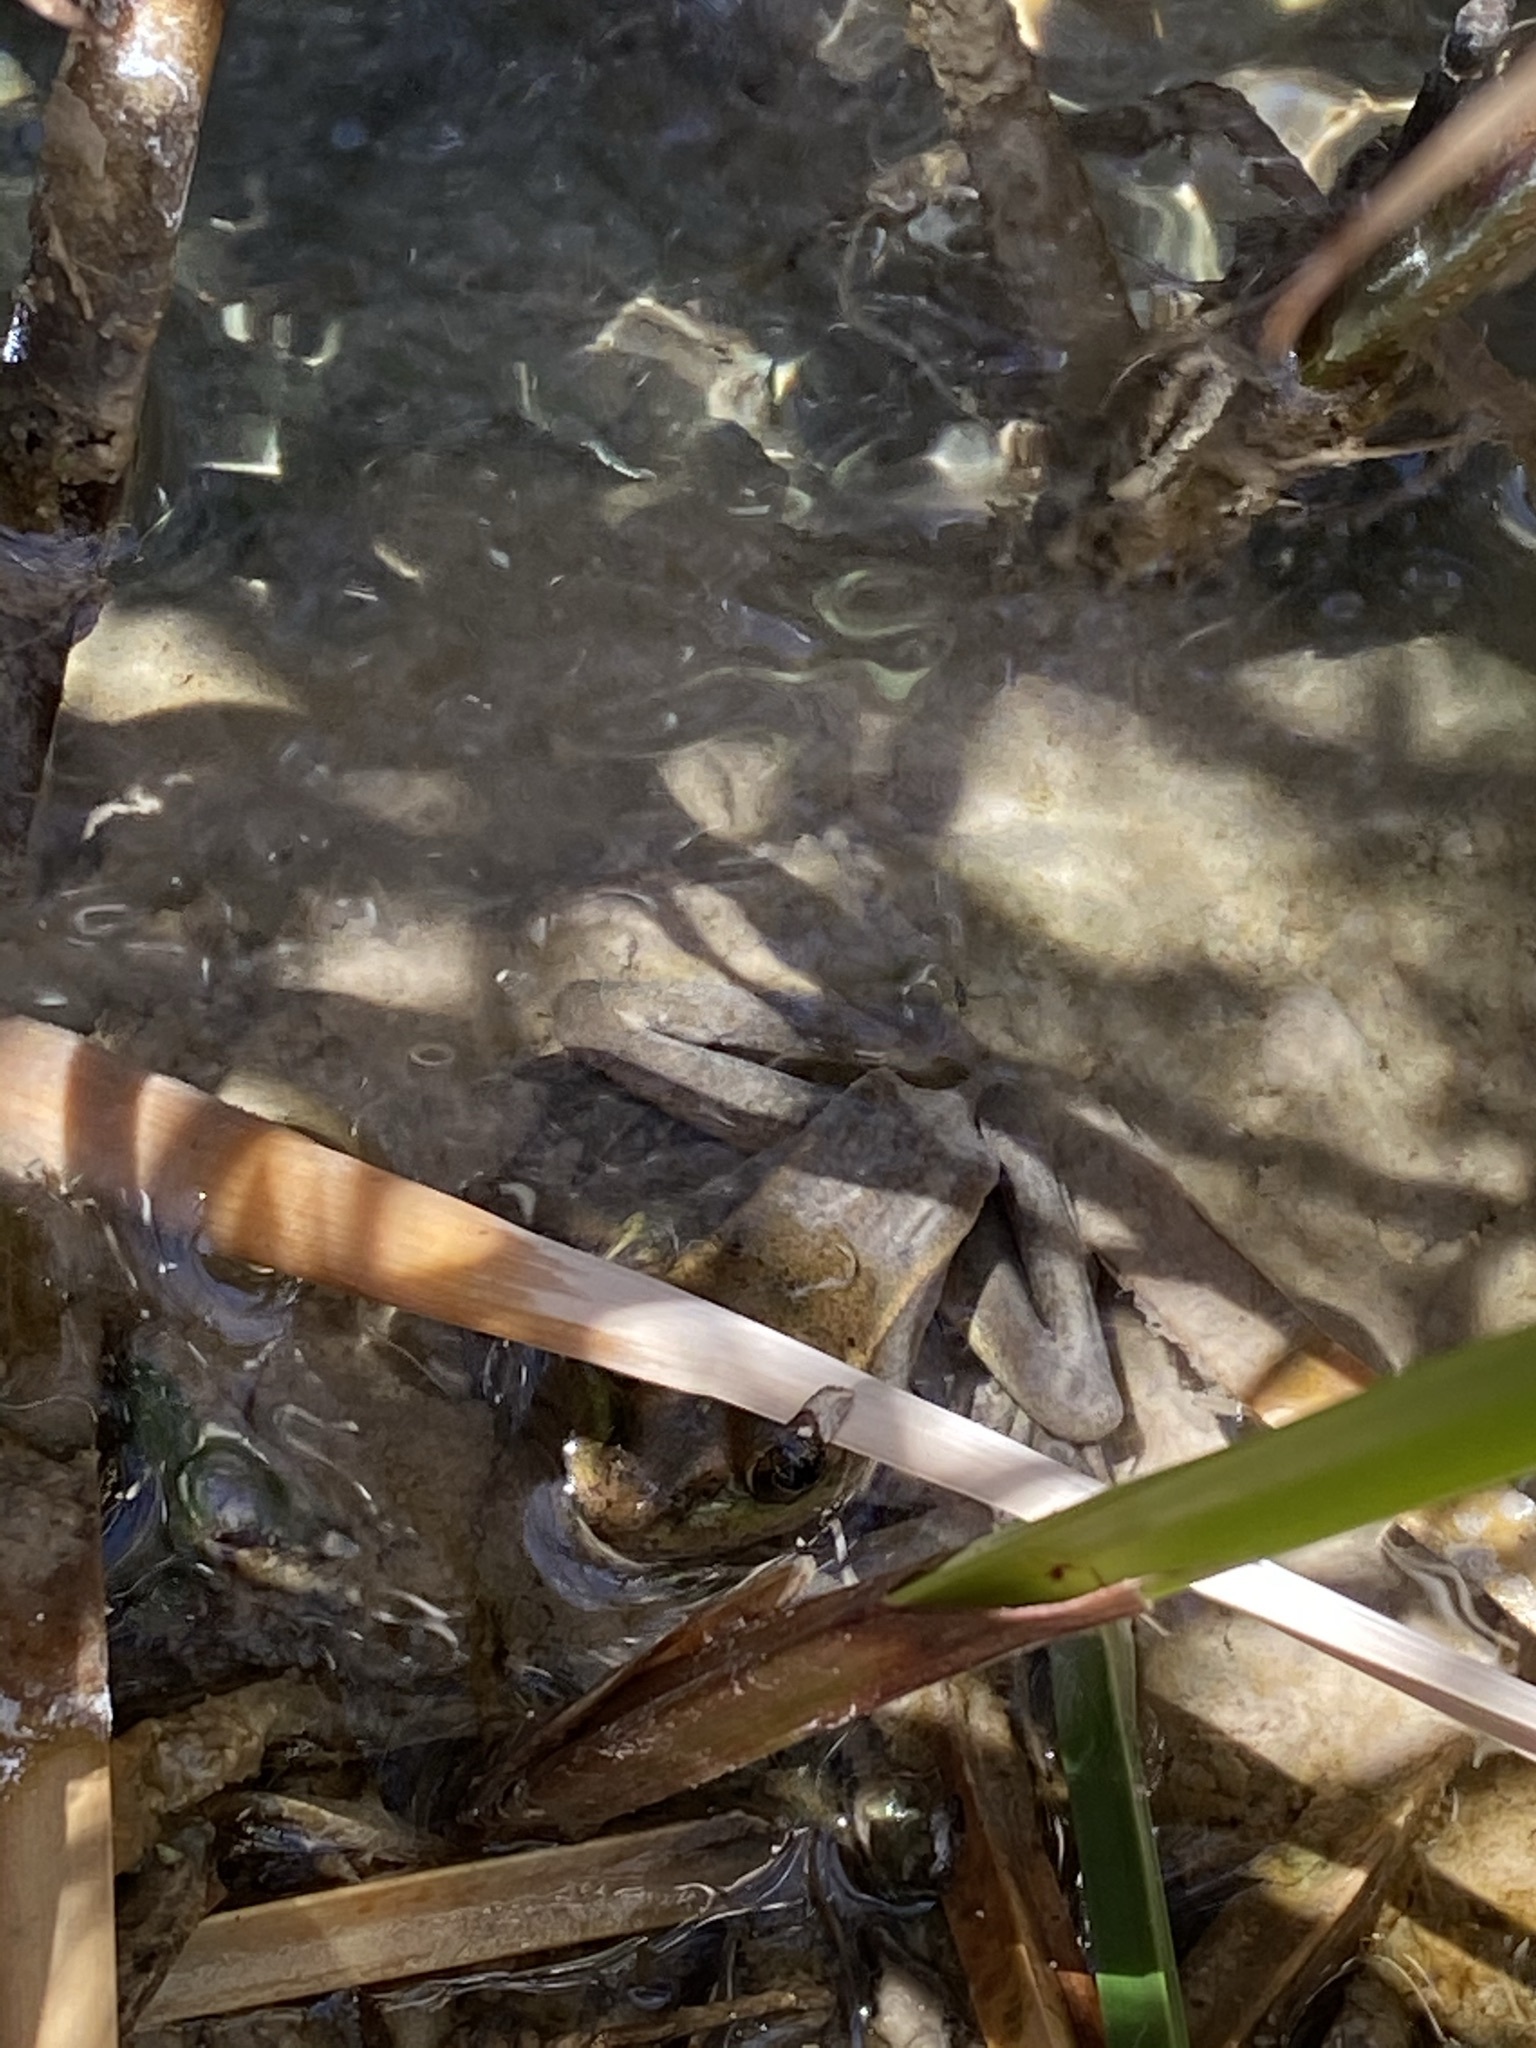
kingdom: Animalia
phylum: Chordata
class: Amphibia
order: Anura
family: Ranidae
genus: Lithobates
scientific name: Lithobates onca
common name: Relict leopard frog
